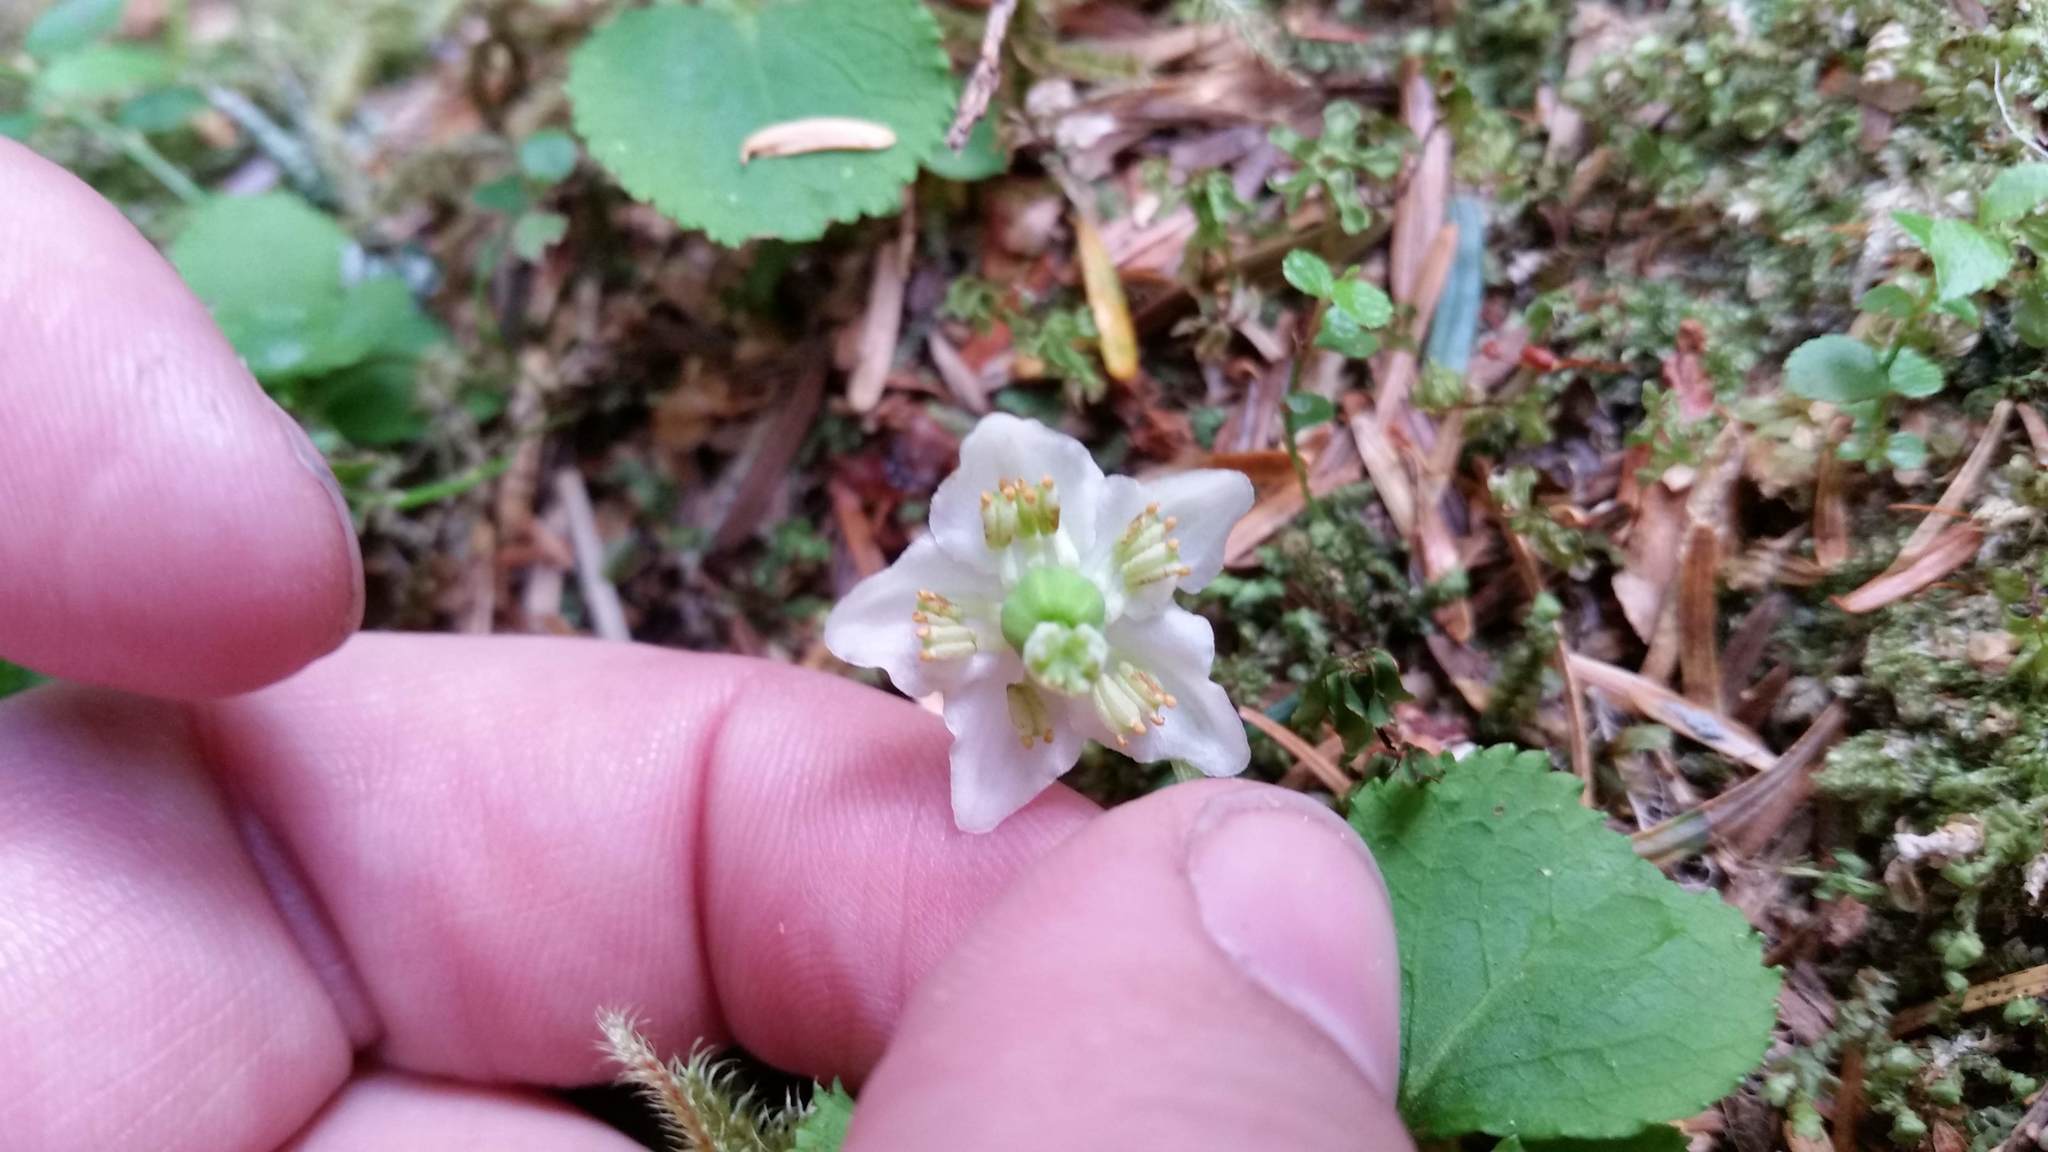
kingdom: Plantae
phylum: Tracheophyta
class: Magnoliopsida
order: Ericales
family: Ericaceae
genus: Moneses
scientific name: Moneses uniflora
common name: One-flowered wintergreen
